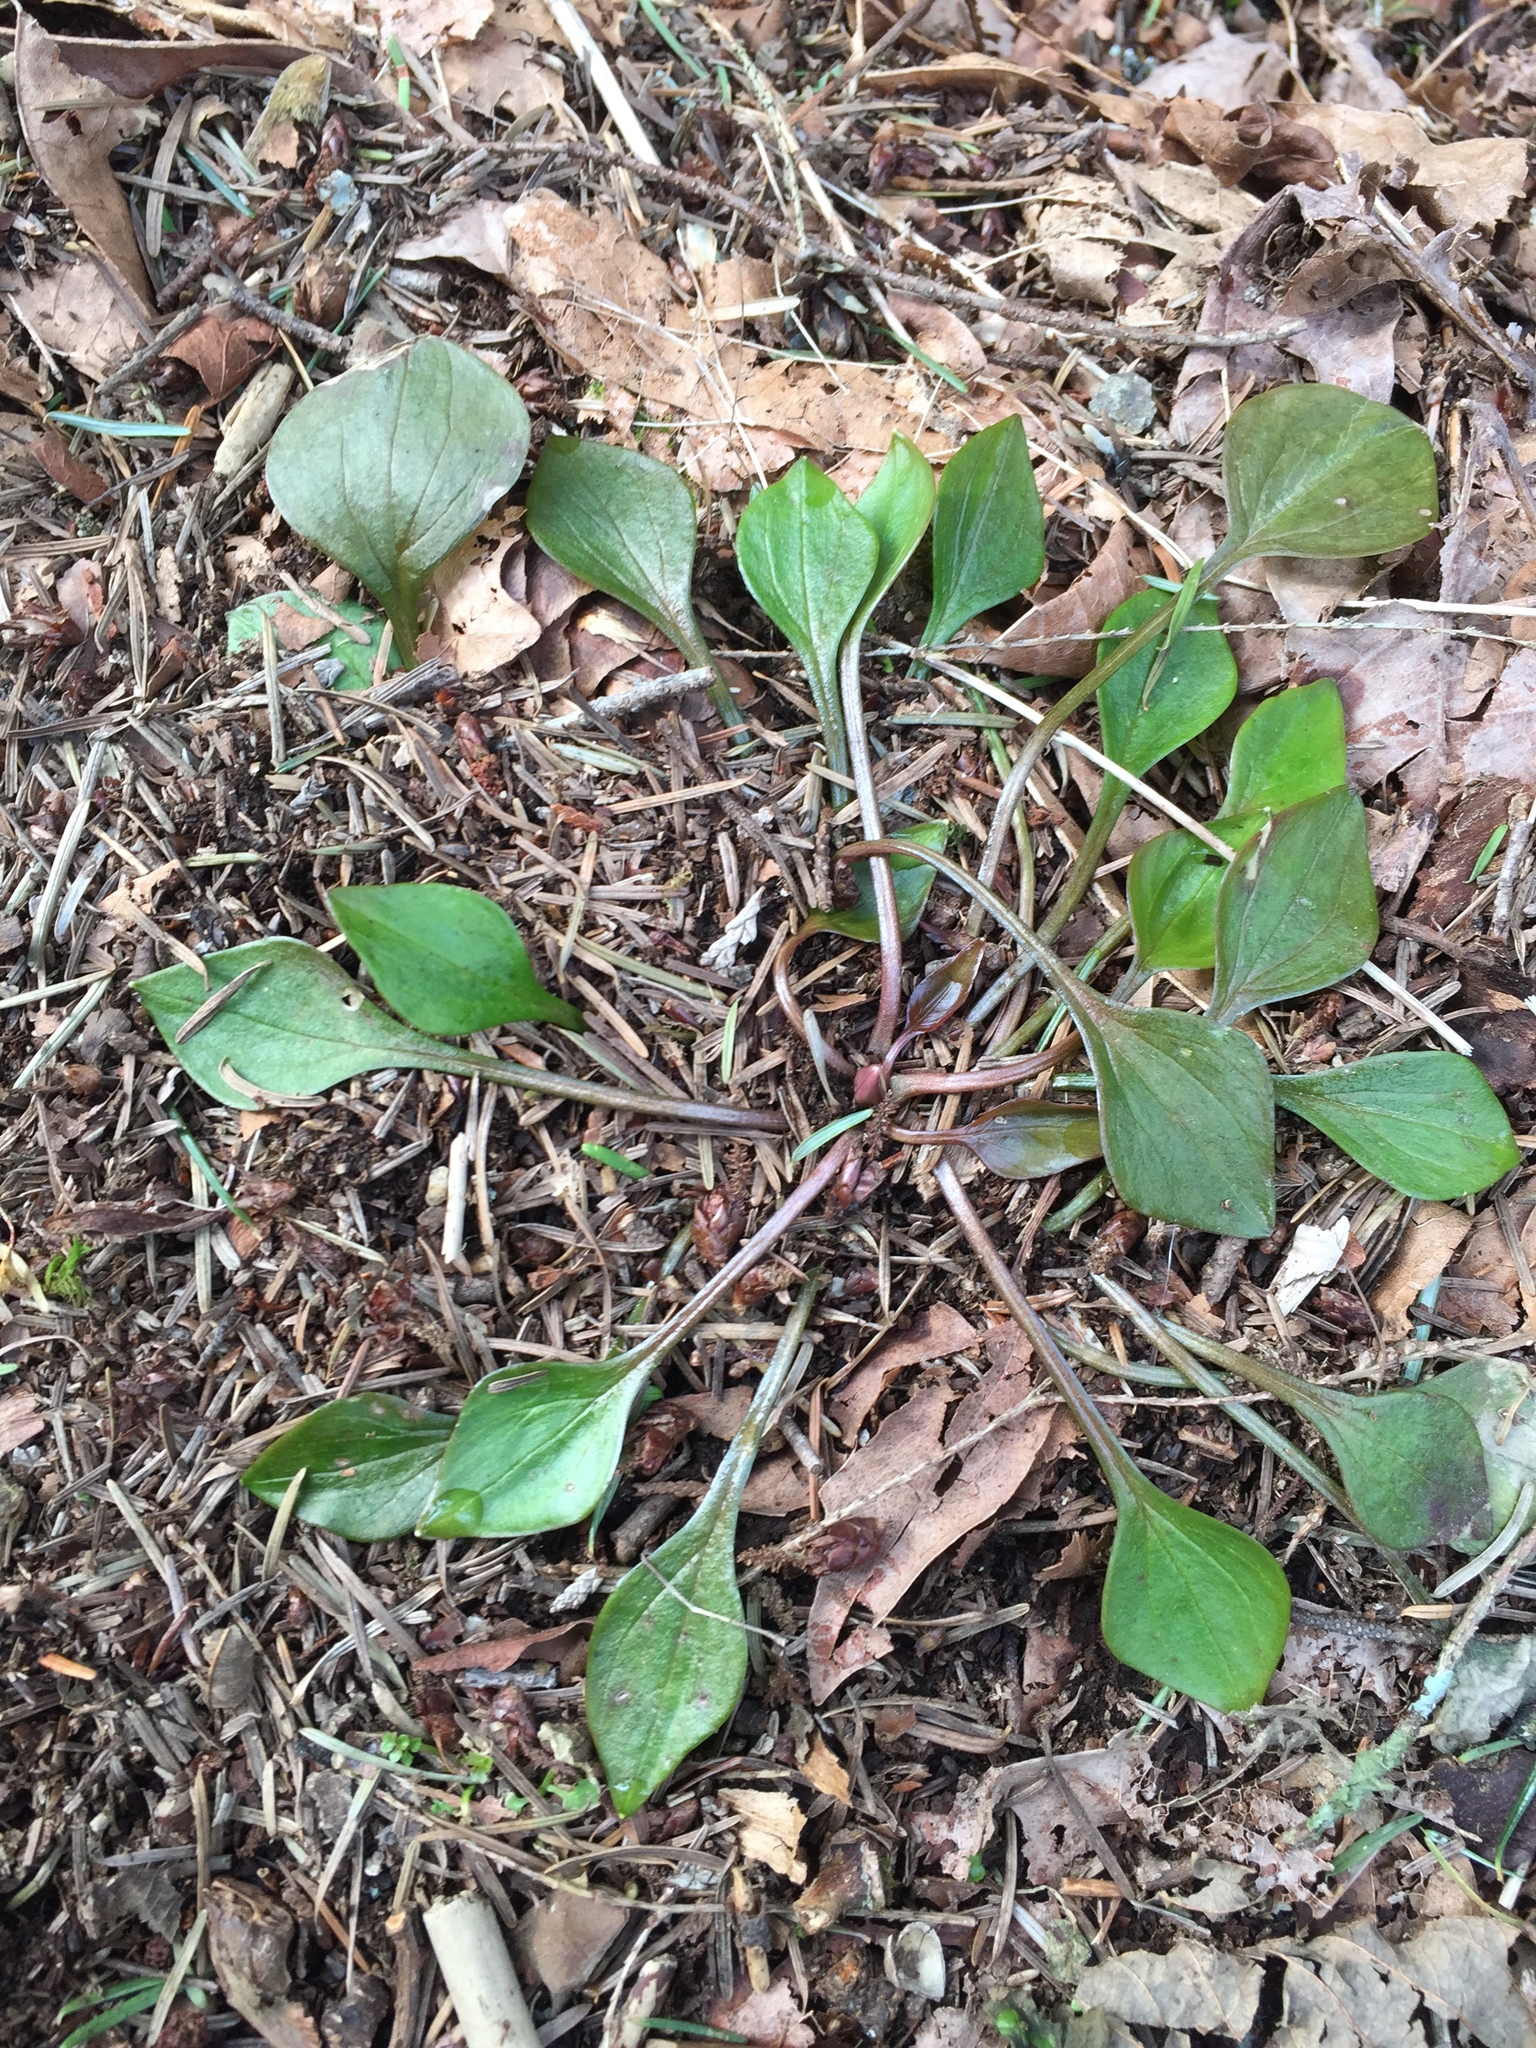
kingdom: Plantae
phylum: Tracheophyta
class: Magnoliopsida
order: Caryophyllales
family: Montiaceae
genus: Claytonia
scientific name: Claytonia sibirica
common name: Pink purslane
